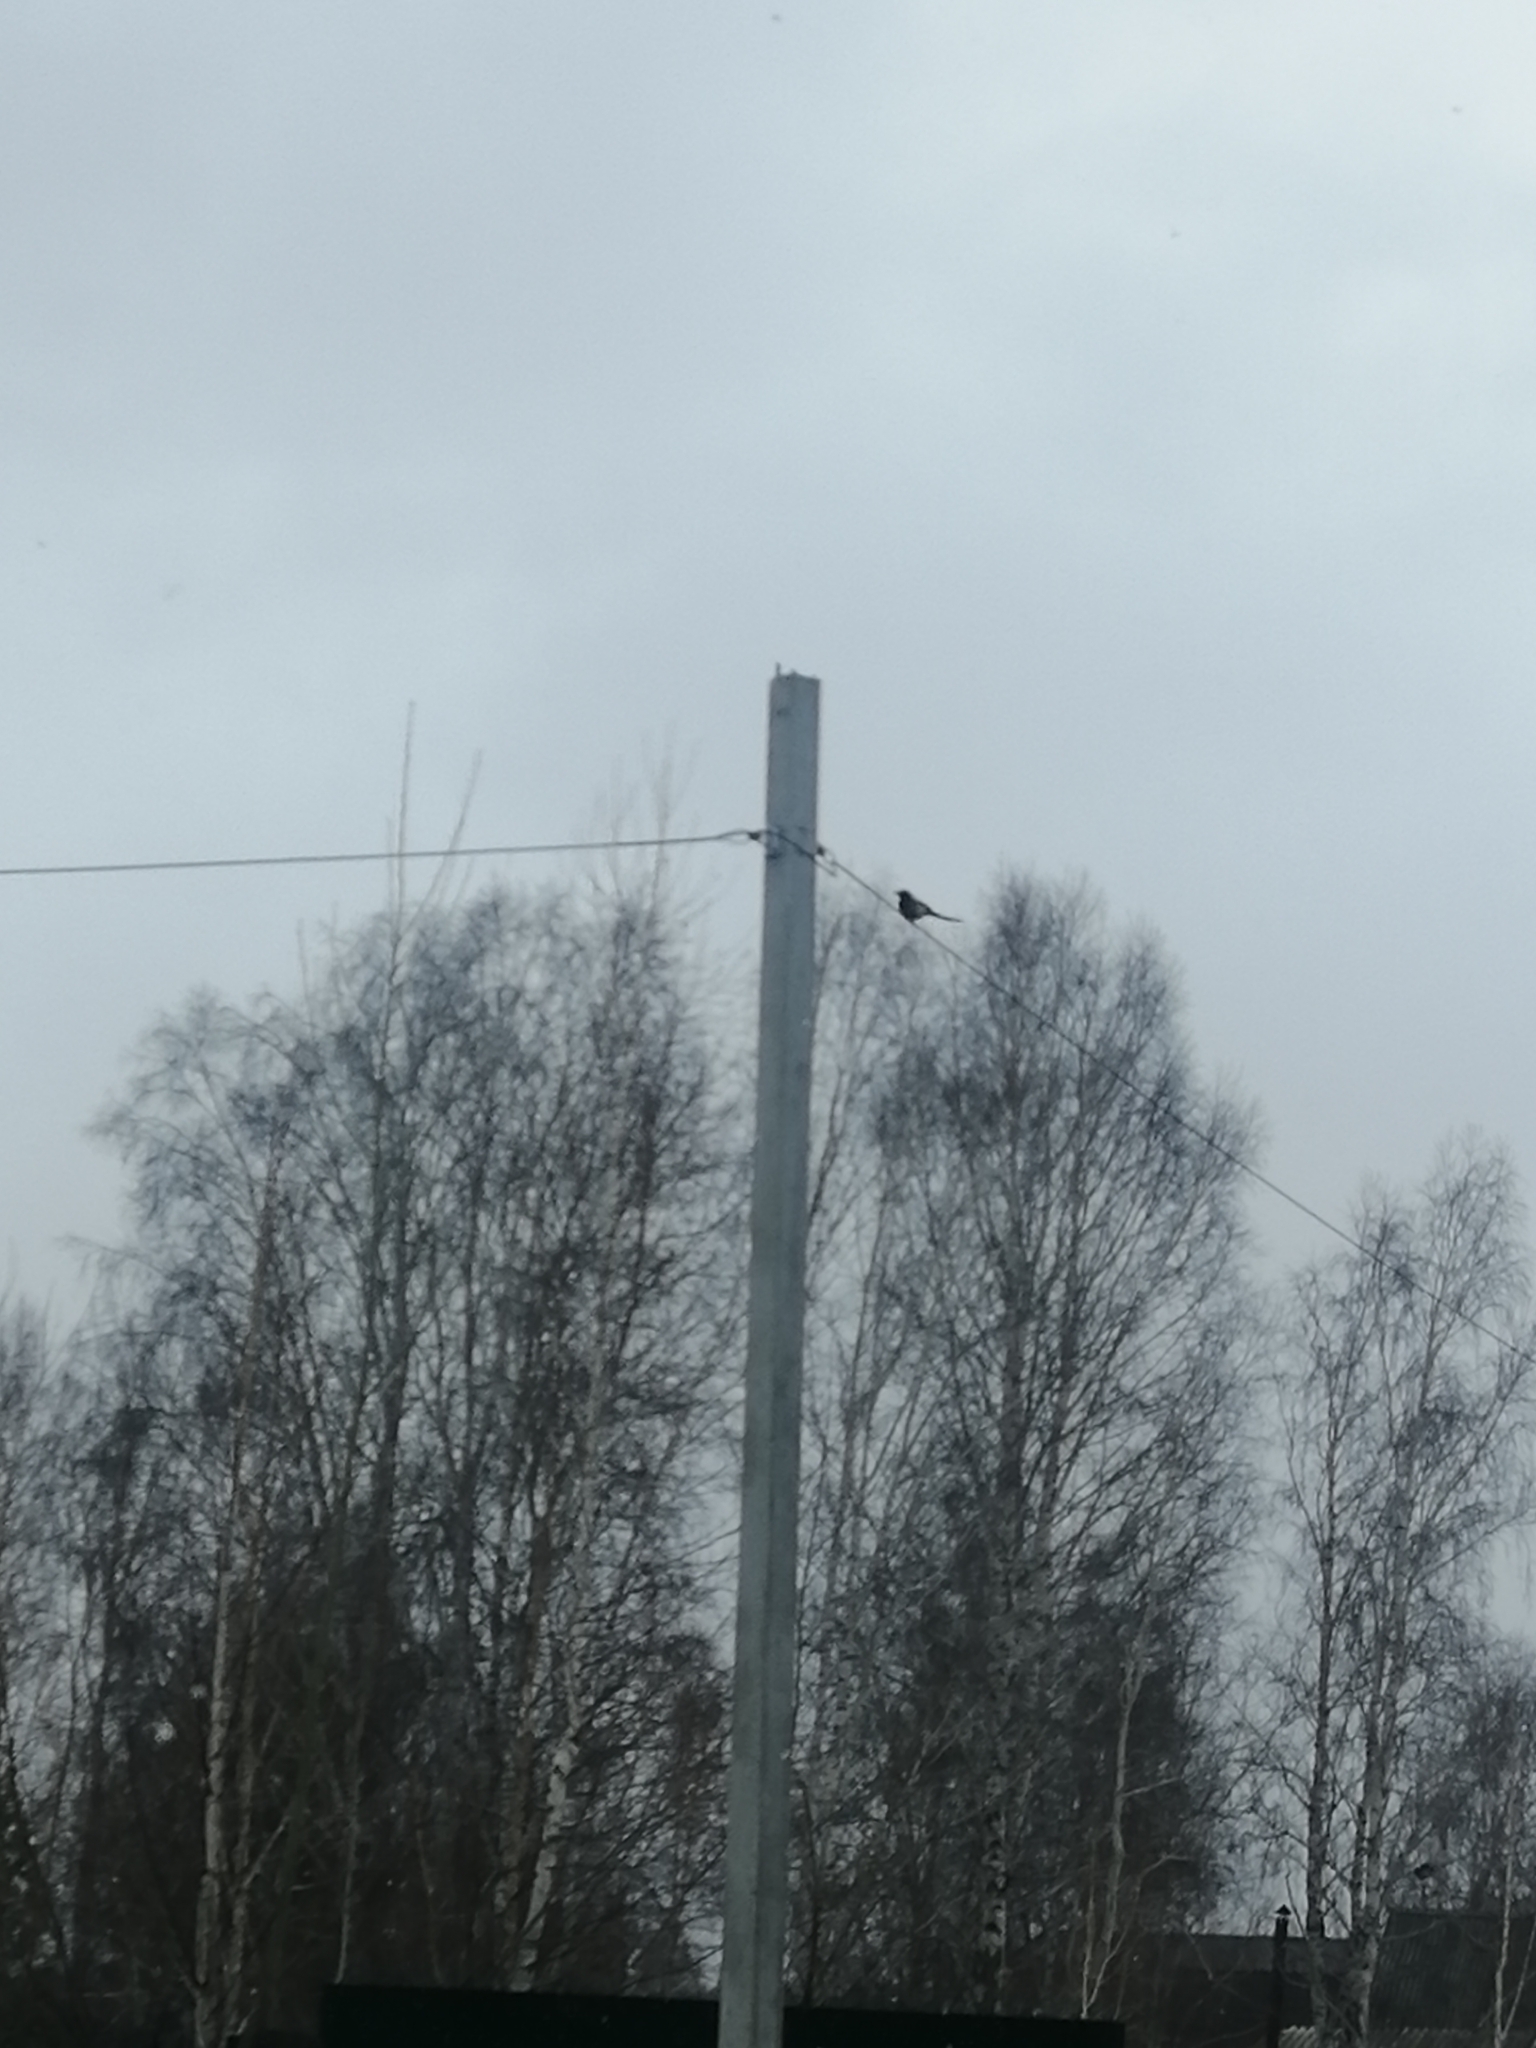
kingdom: Animalia
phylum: Chordata
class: Aves
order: Passeriformes
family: Corvidae
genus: Pica
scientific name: Pica pica
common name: Eurasian magpie
